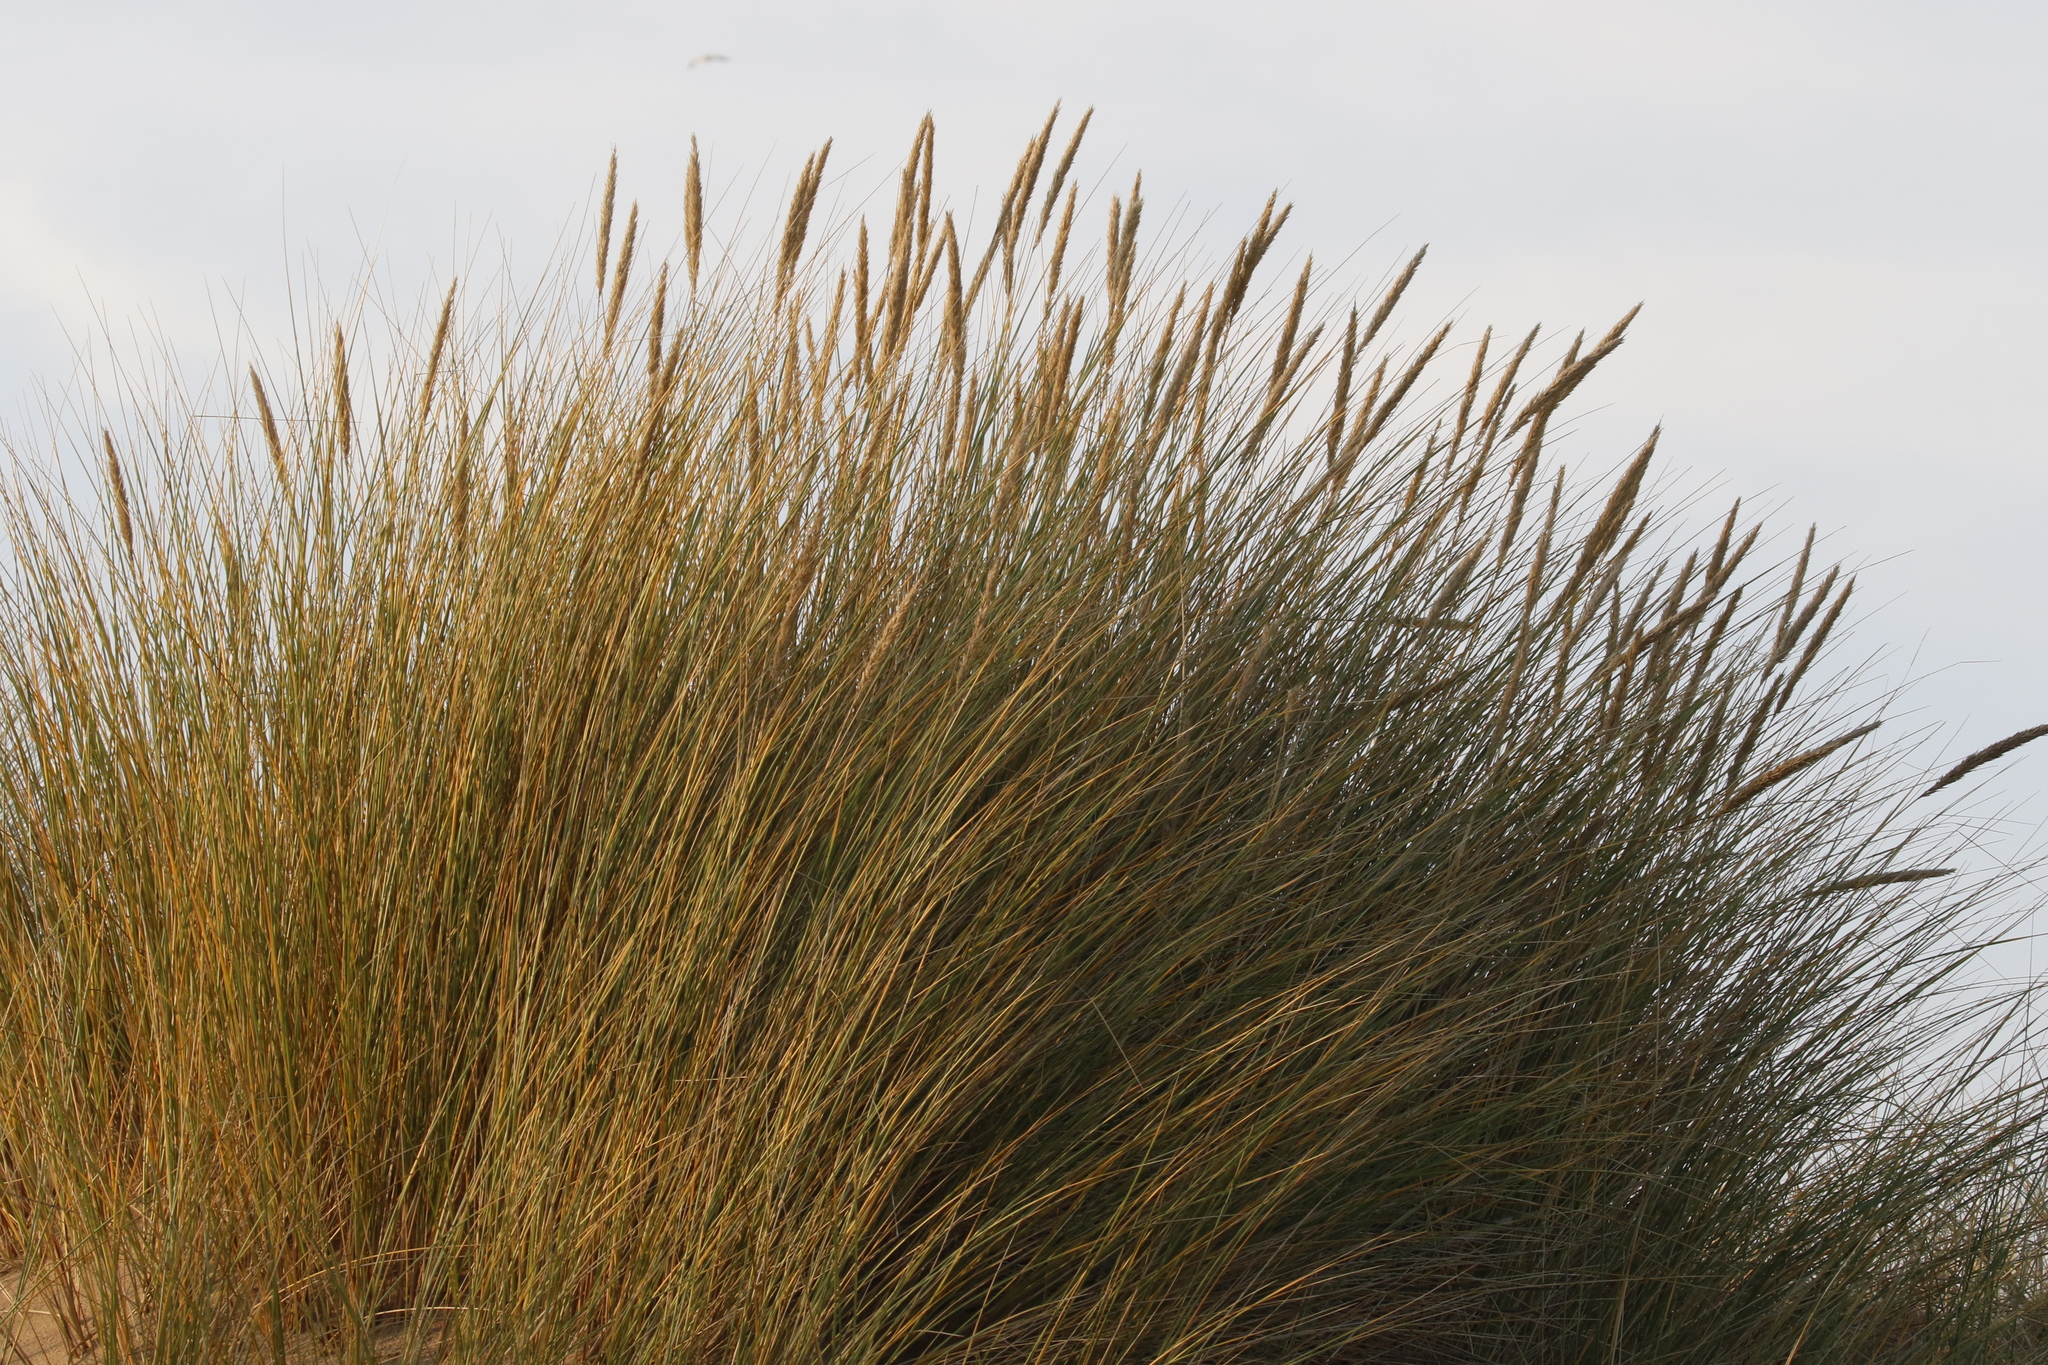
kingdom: Plantae
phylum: Tracheophyta
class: Liliopsida
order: Poales
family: Poaceae
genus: Calamagrostis
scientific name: Calamagrostis arenaria
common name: European beachgrass
